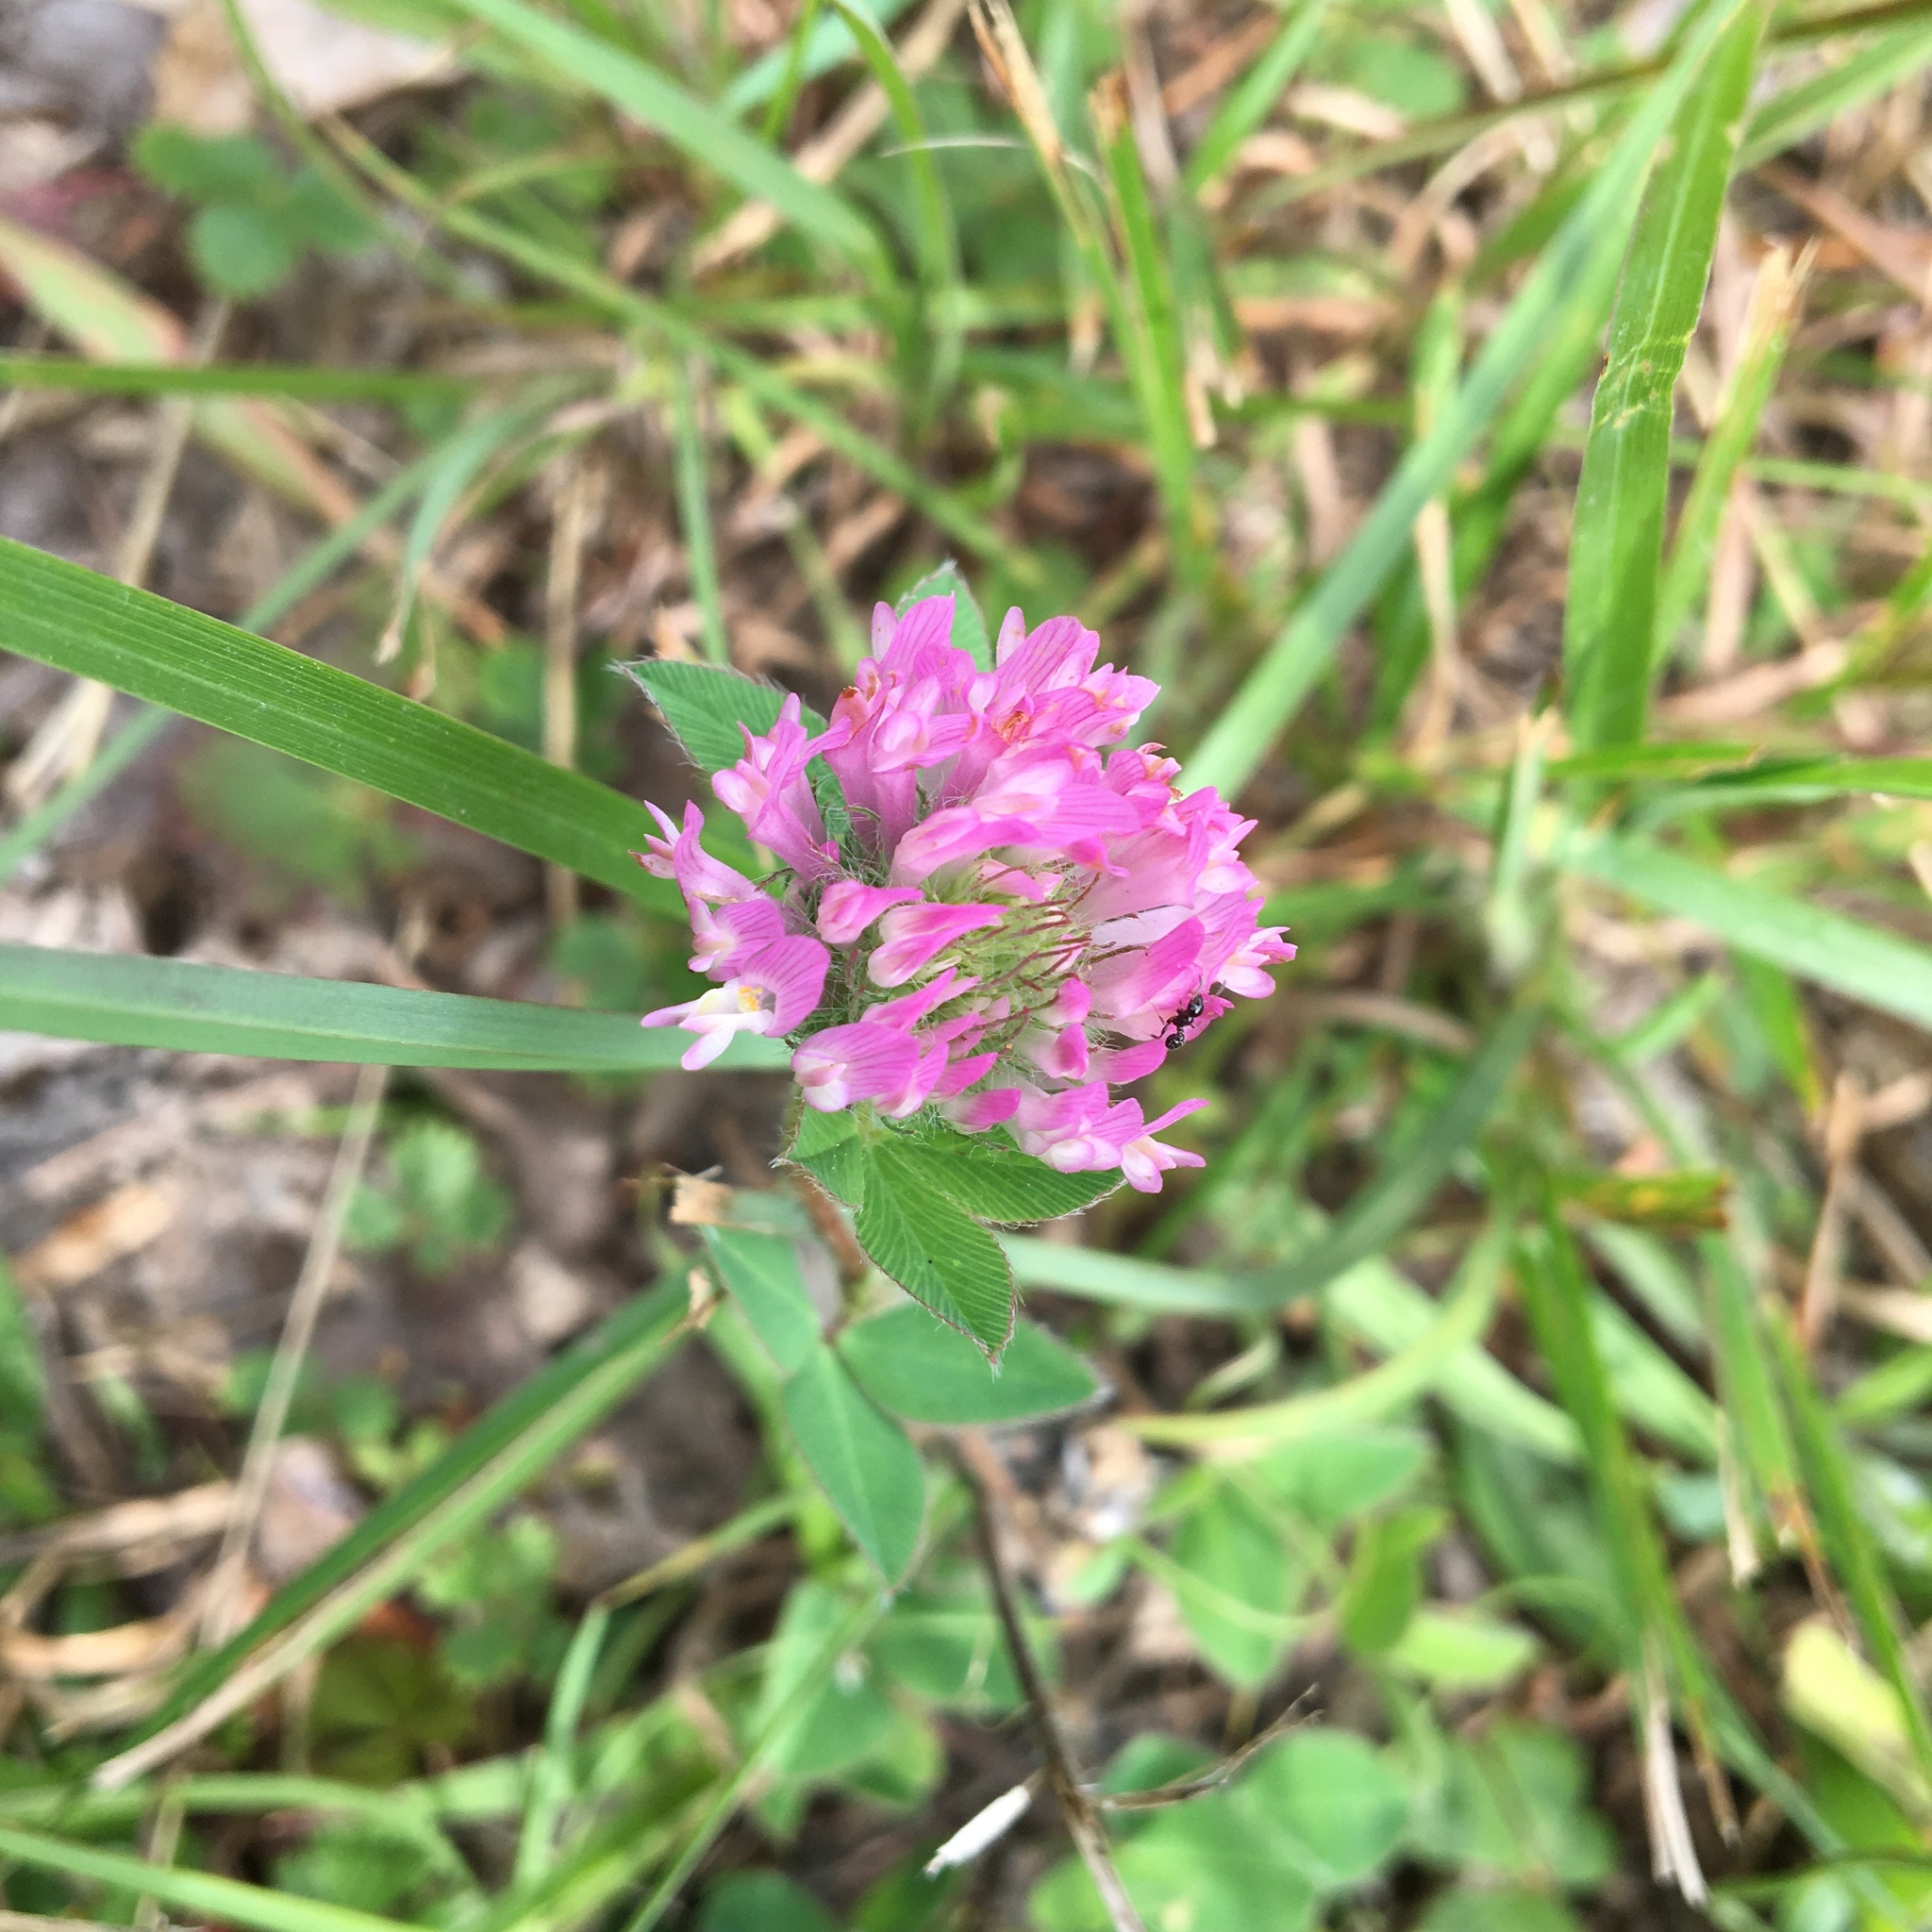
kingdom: Plantae
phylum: Tracheophyta
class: Magnoliopsida
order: Fabales
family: Fabaceae
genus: Trifolium
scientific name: Trifolium pratense
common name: Red clover
